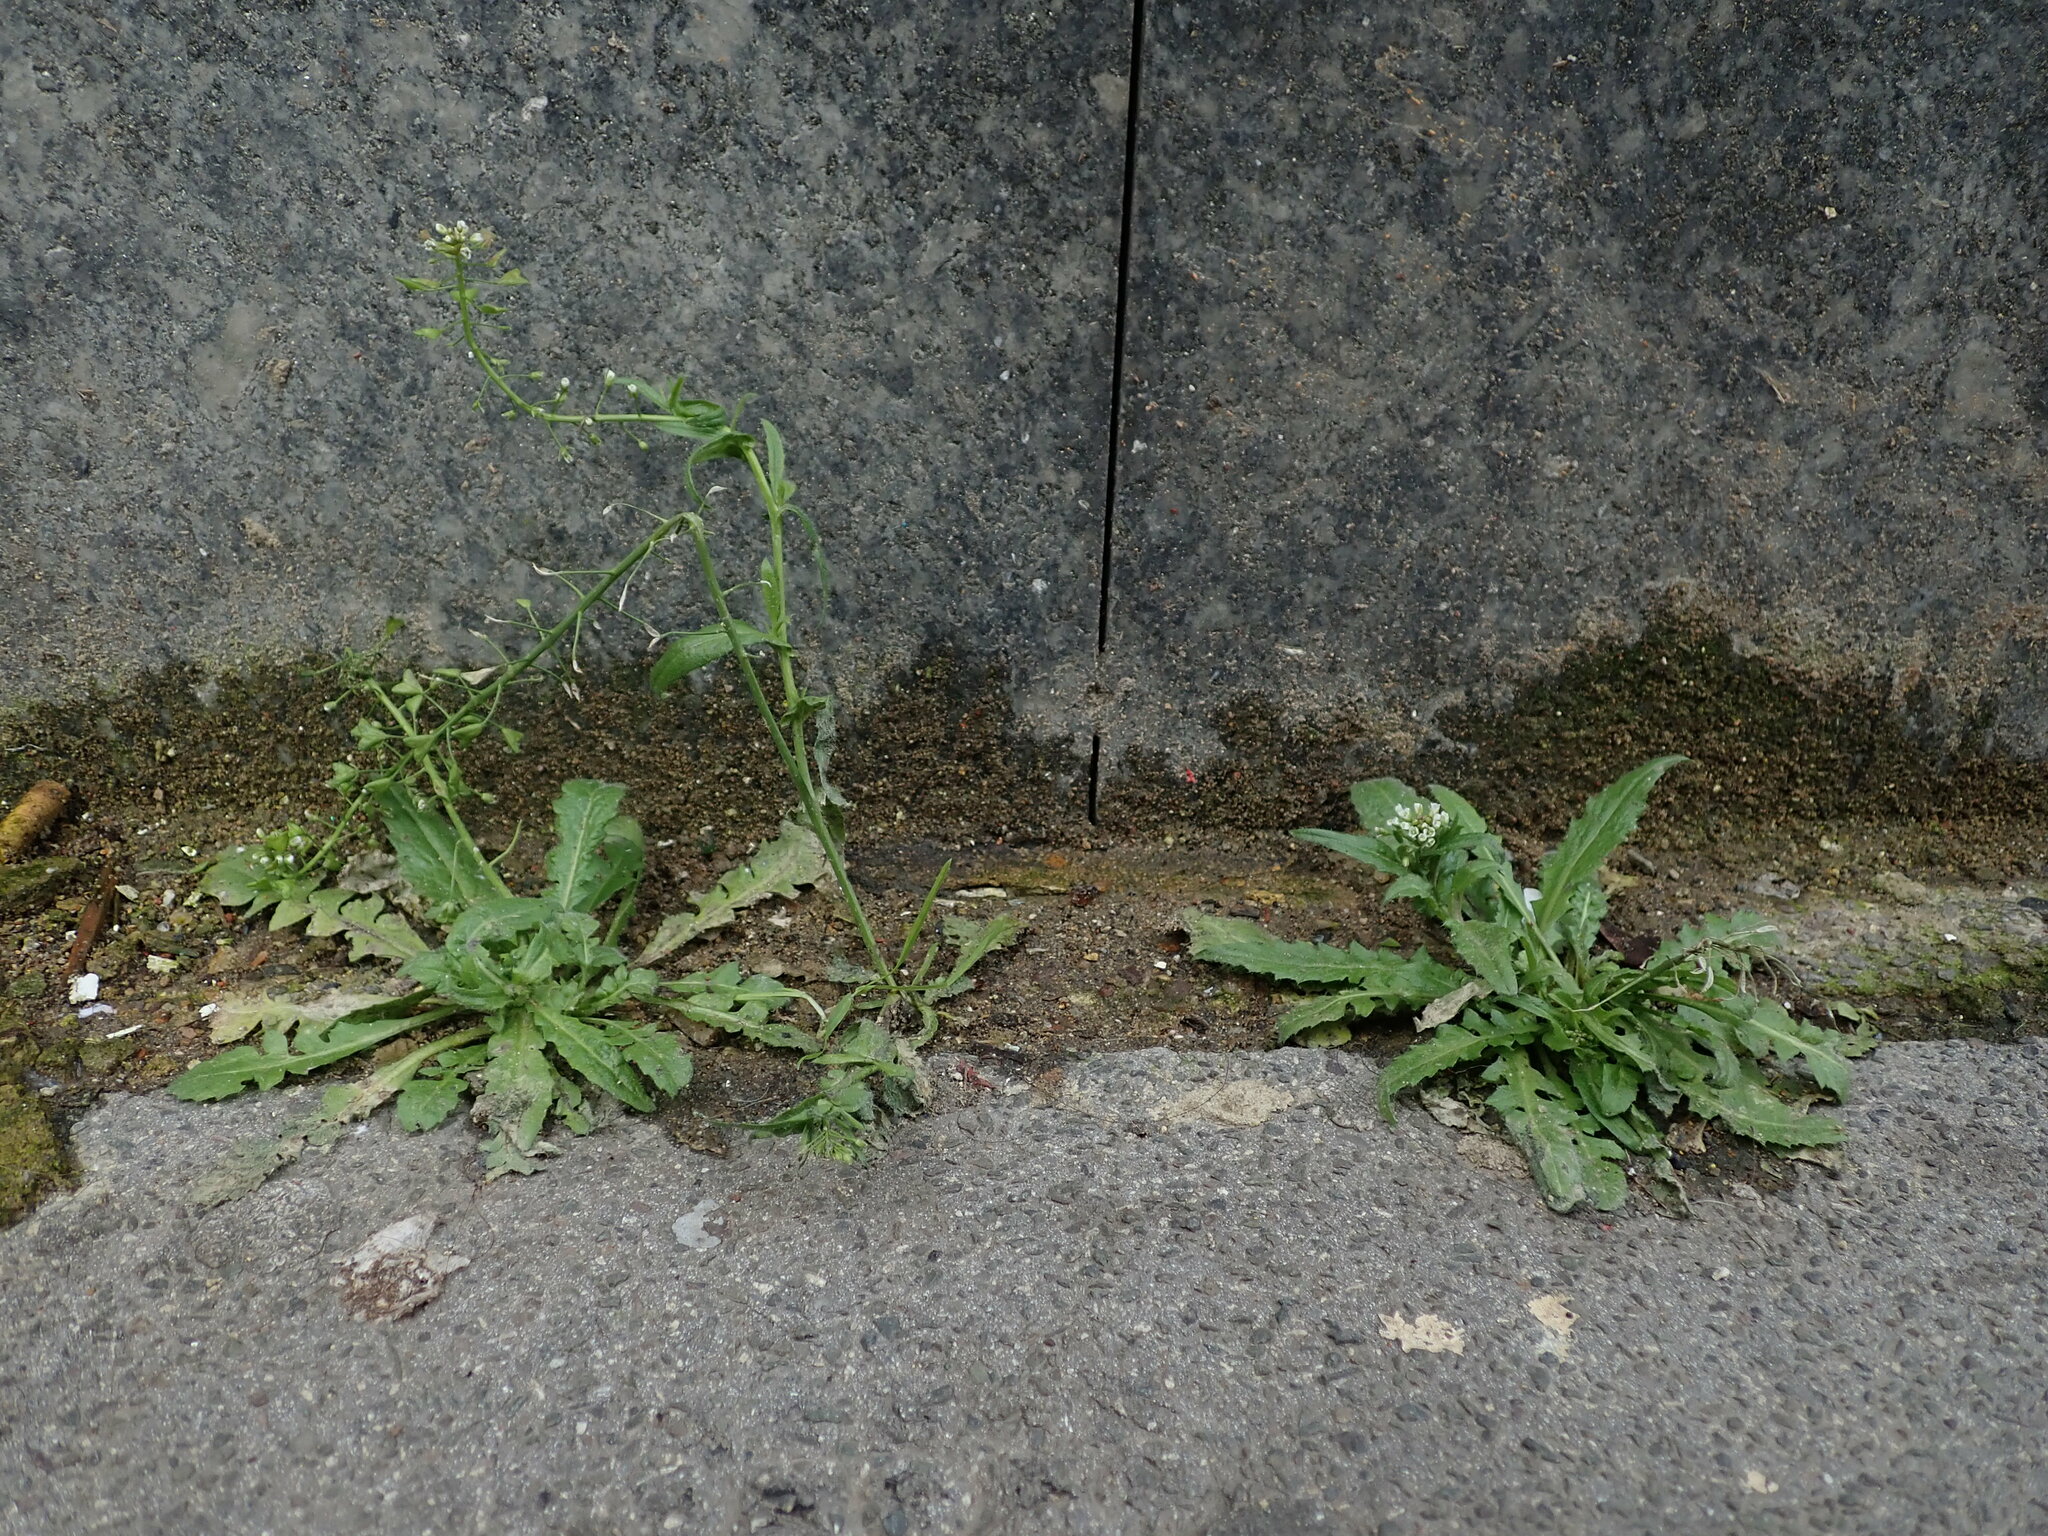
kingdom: Plantae
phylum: Tracheophyta
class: Magnoliopsida
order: Brassicales
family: Brassicaceae
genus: Capsella
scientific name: Capsella bursa-pastoris
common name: Shepherd's purse
